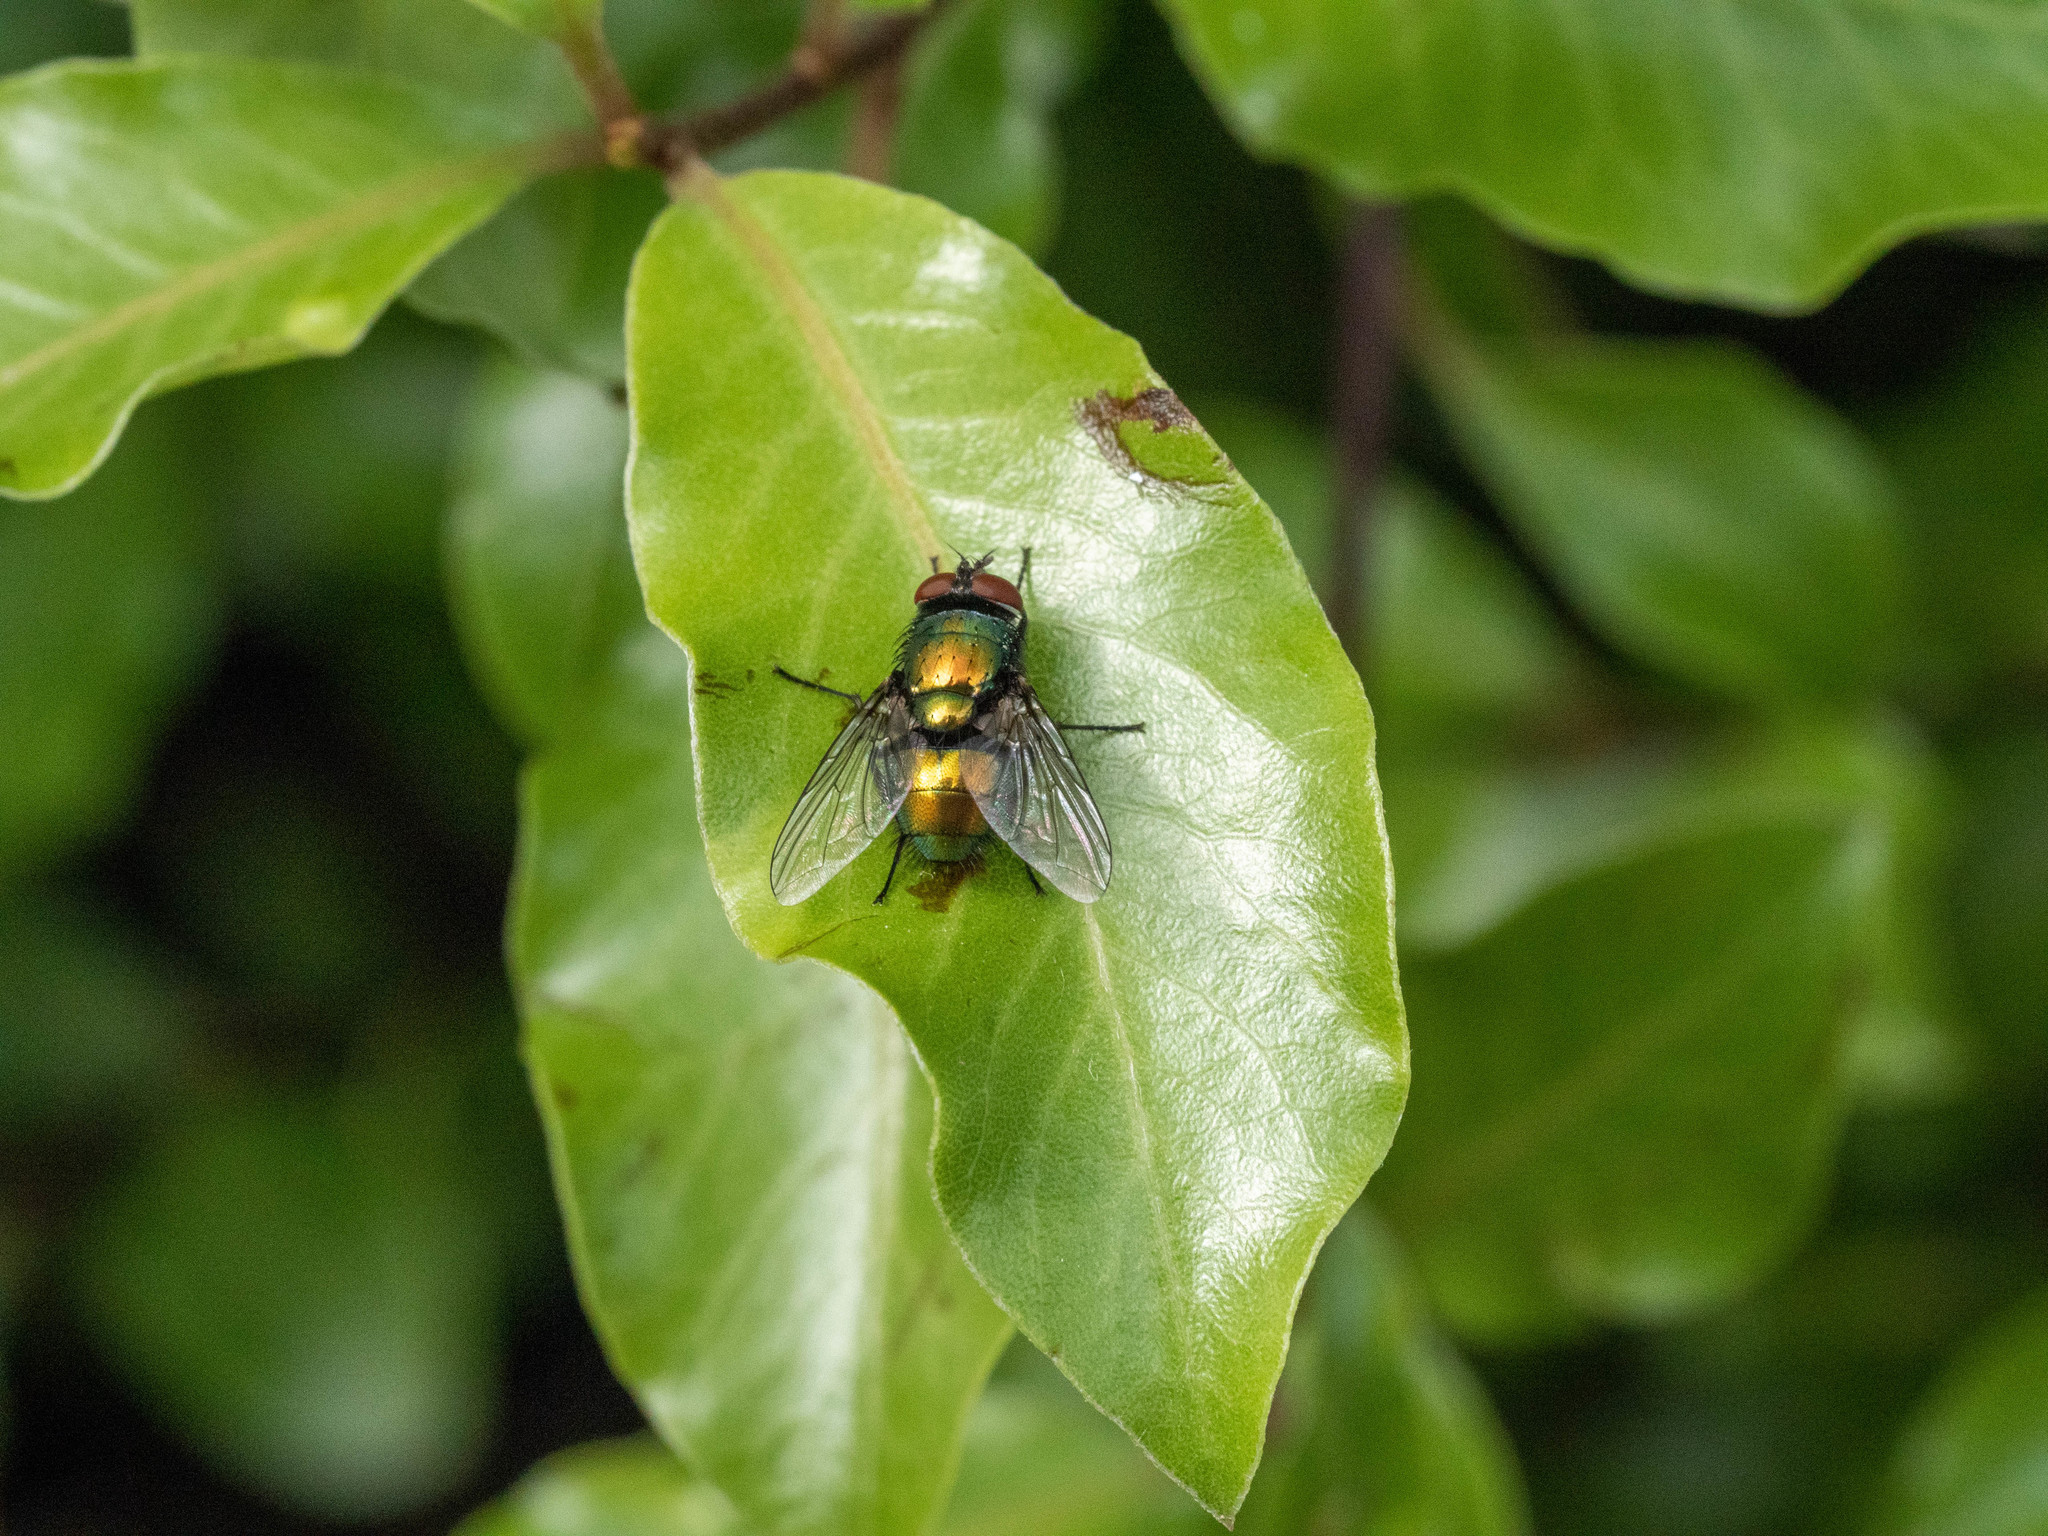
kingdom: Animalia
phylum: Arthropoda
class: Insecta
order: Diptera
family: Calliphoridae
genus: Lucilia
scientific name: Lucilia sericata
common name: Blow fly
